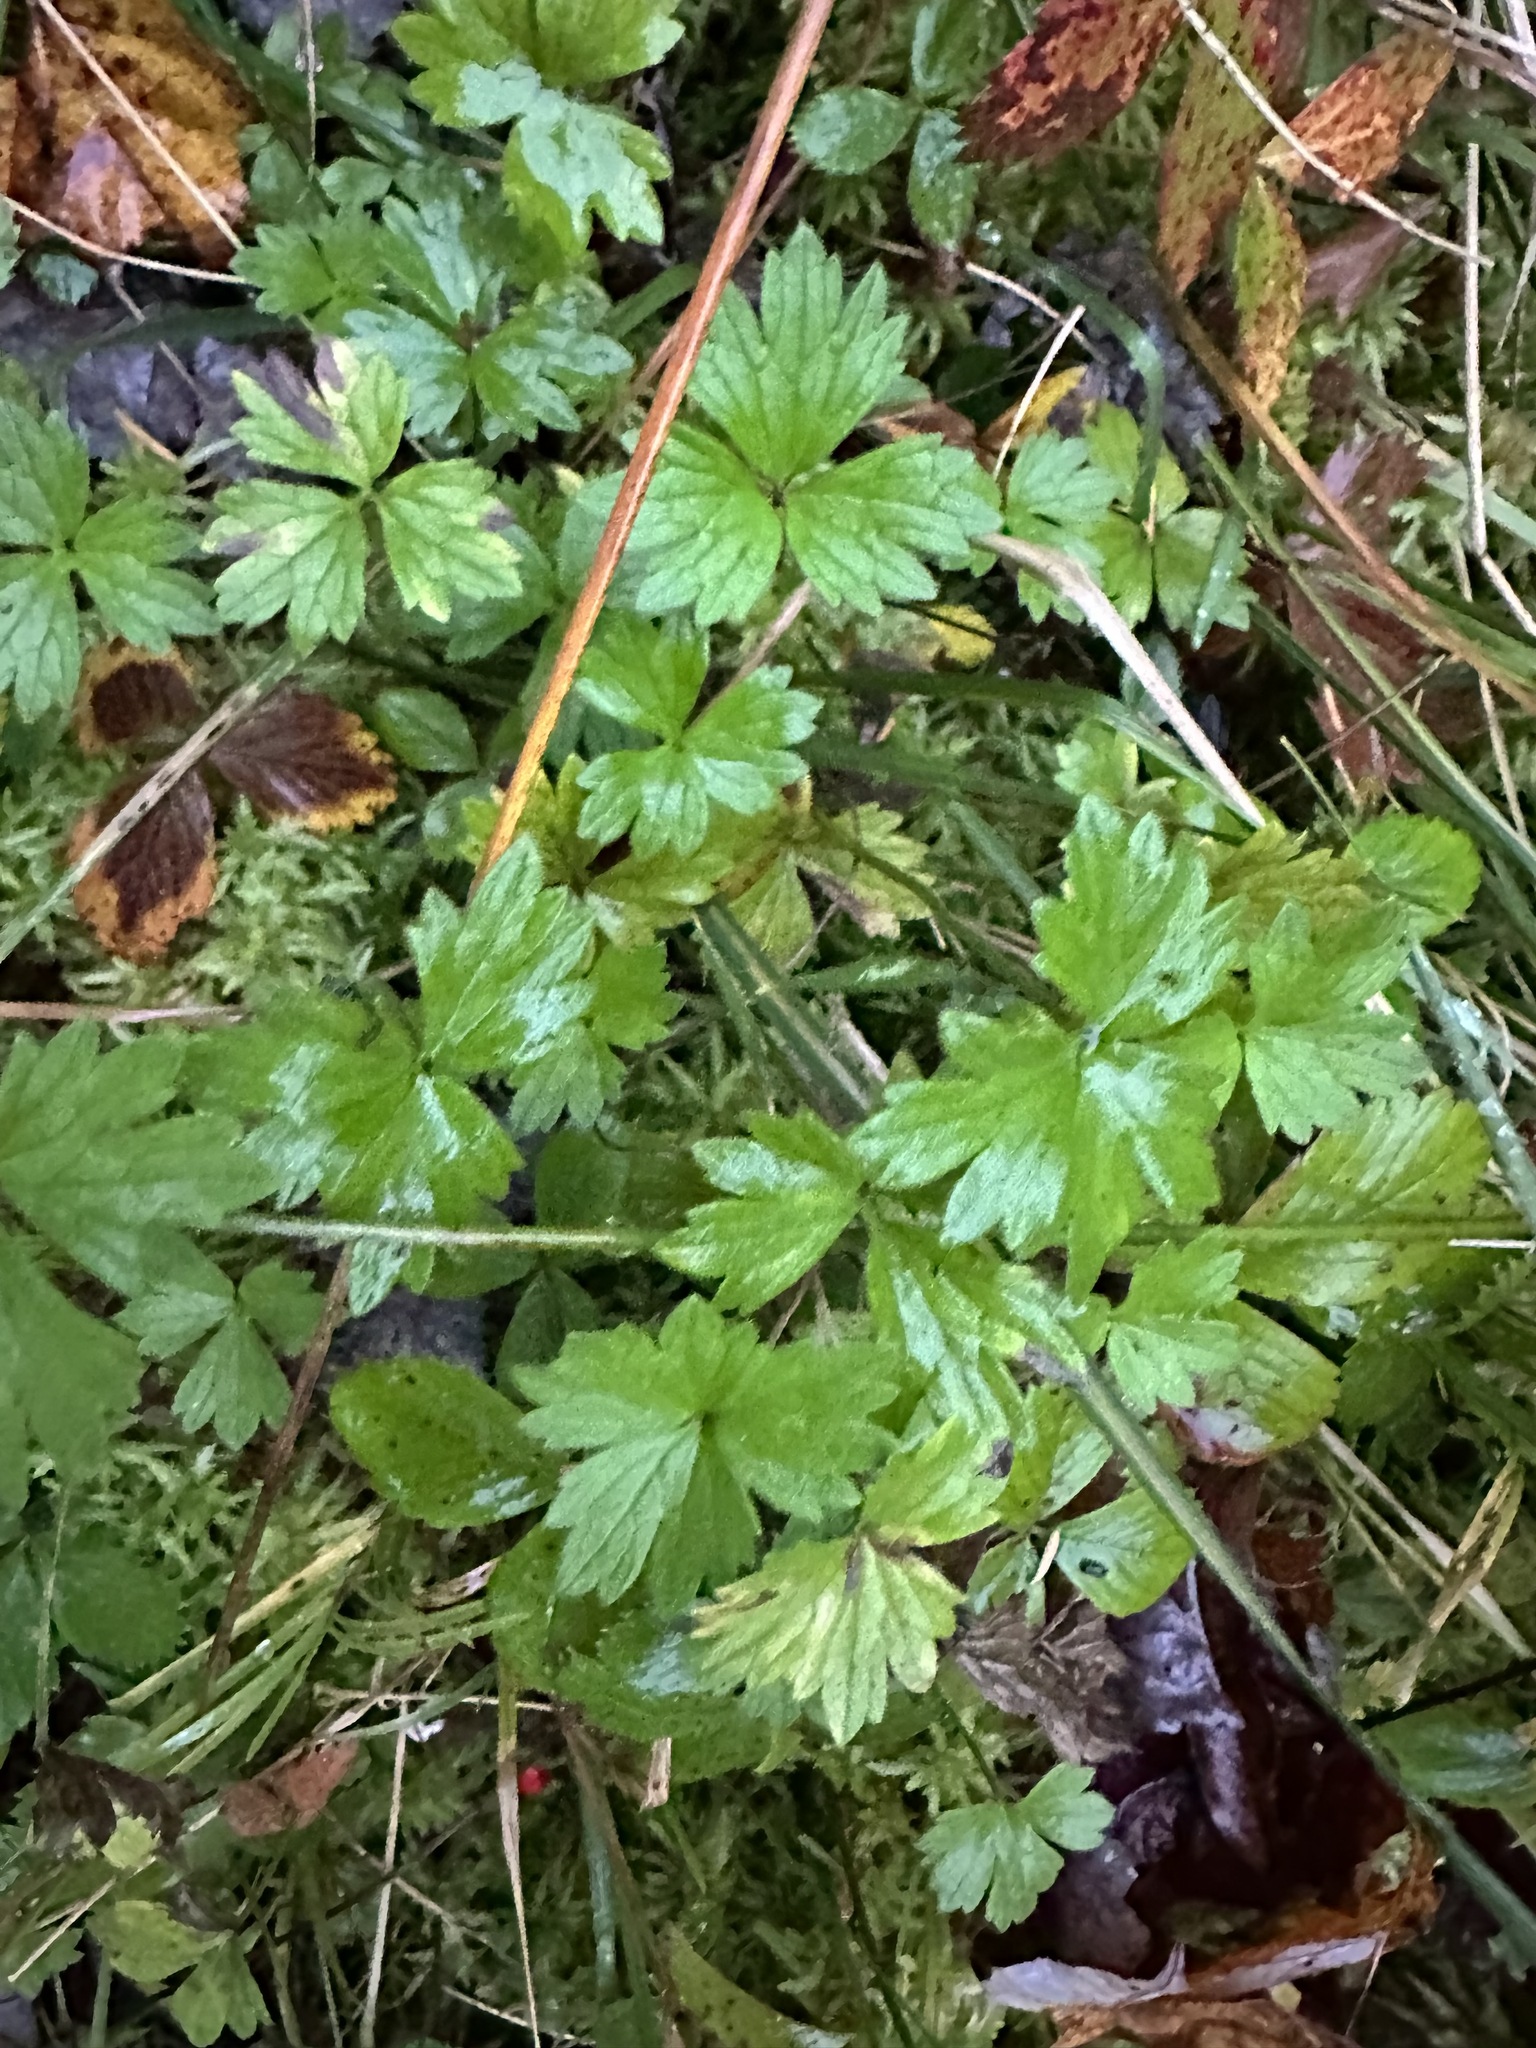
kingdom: Plantae
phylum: Tracheophyta
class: Magnoliopsida
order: Ranunculales
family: Ranunculaceae
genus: Ranunculus
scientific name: Ranunculus repens
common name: Creeping buttercup
